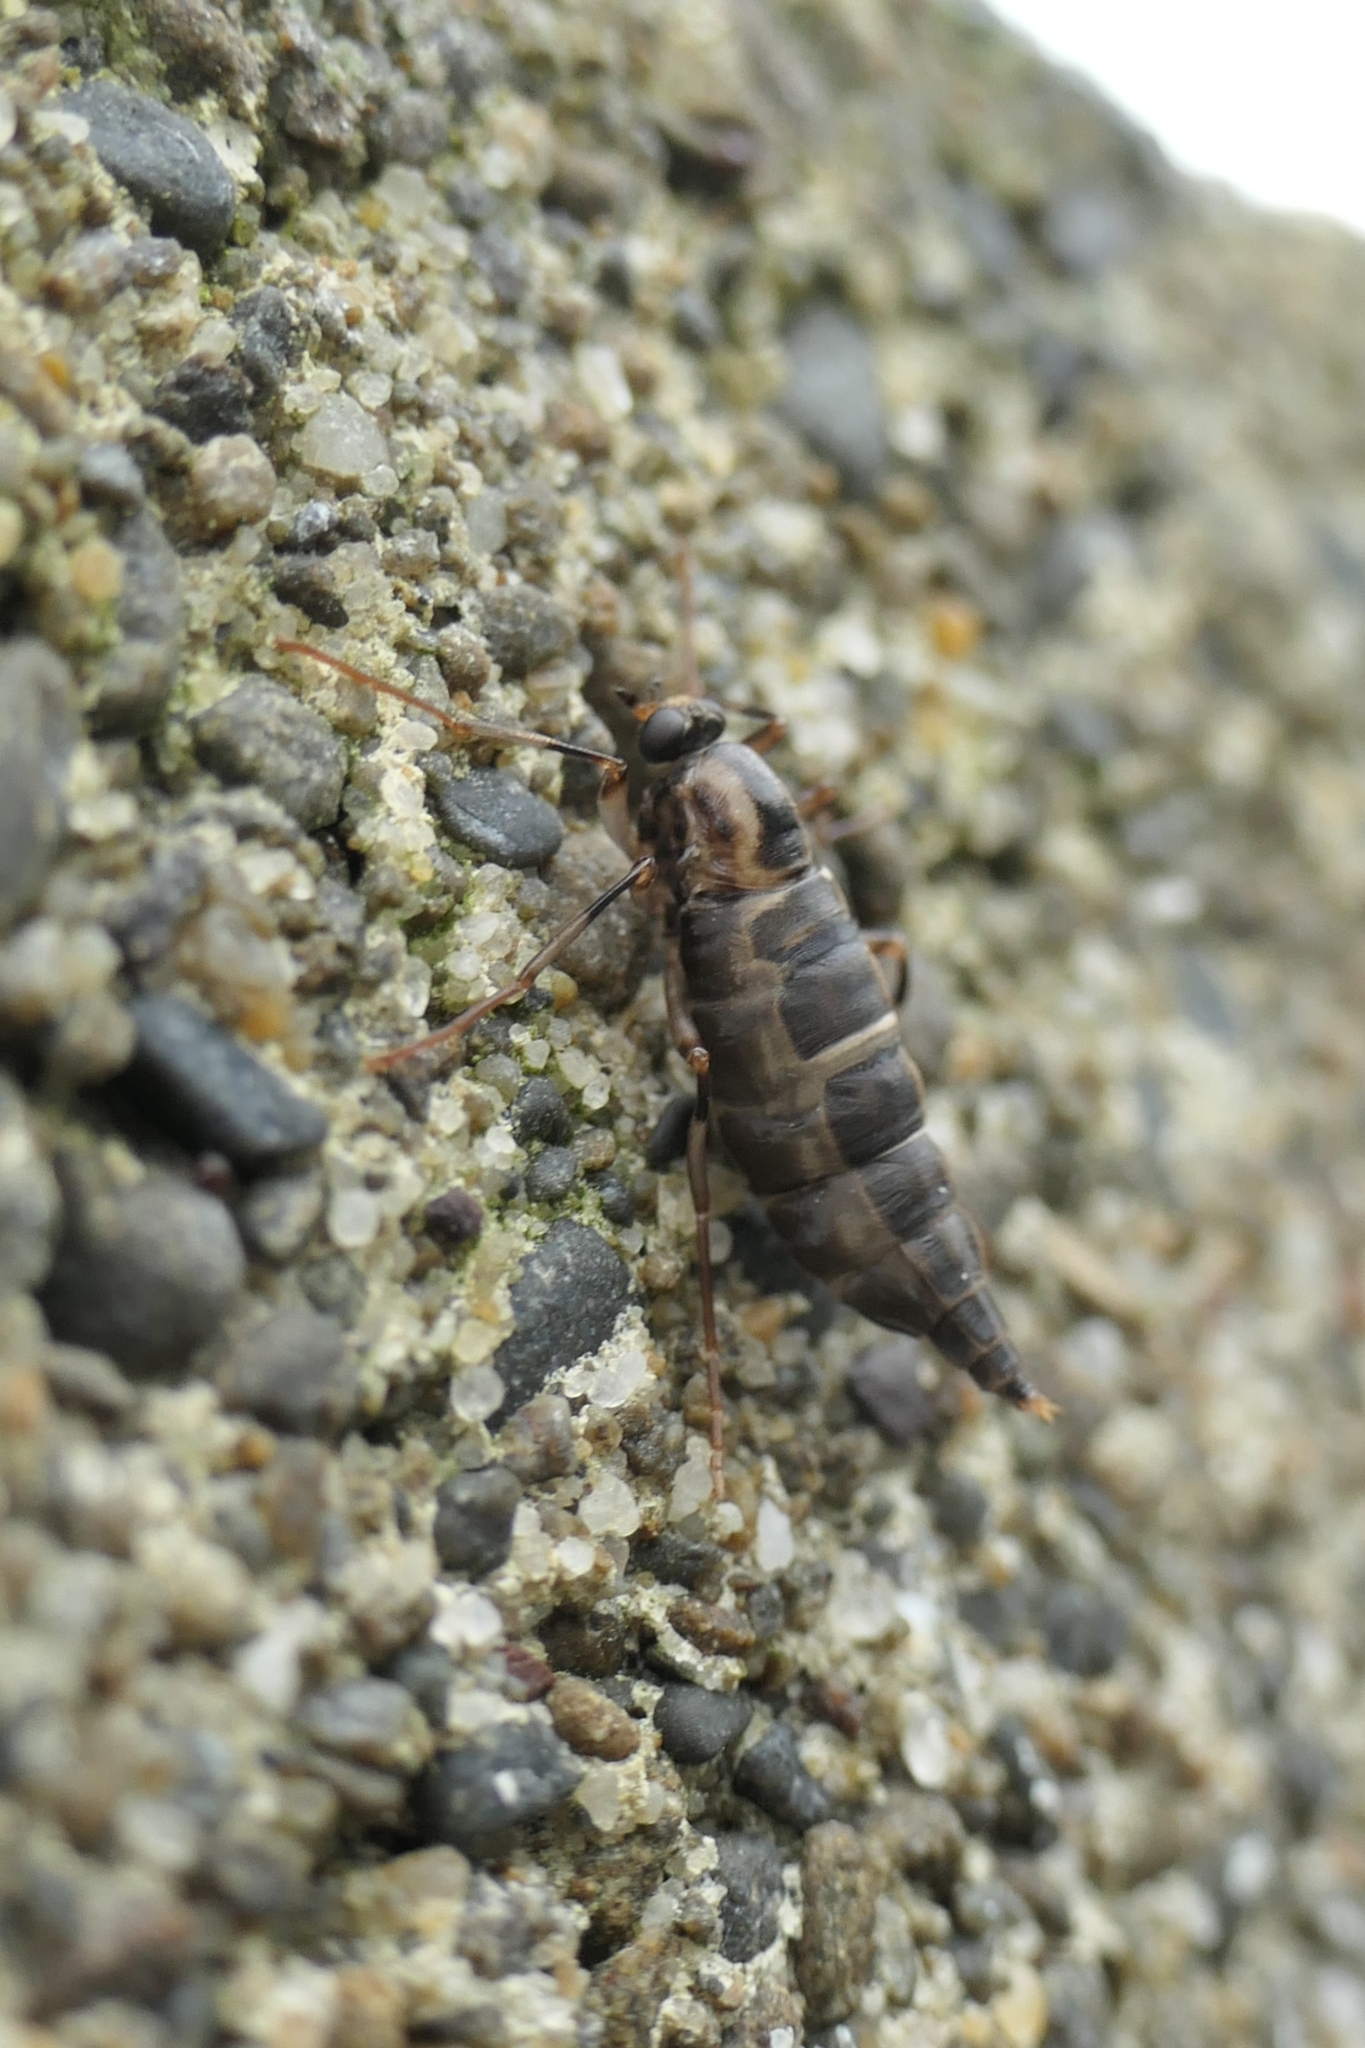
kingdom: Animalia
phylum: Arthropoda
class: Insecta
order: Diptera
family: Stratiomyidae
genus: Boreoides
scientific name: Boreoides tasmaniensis
